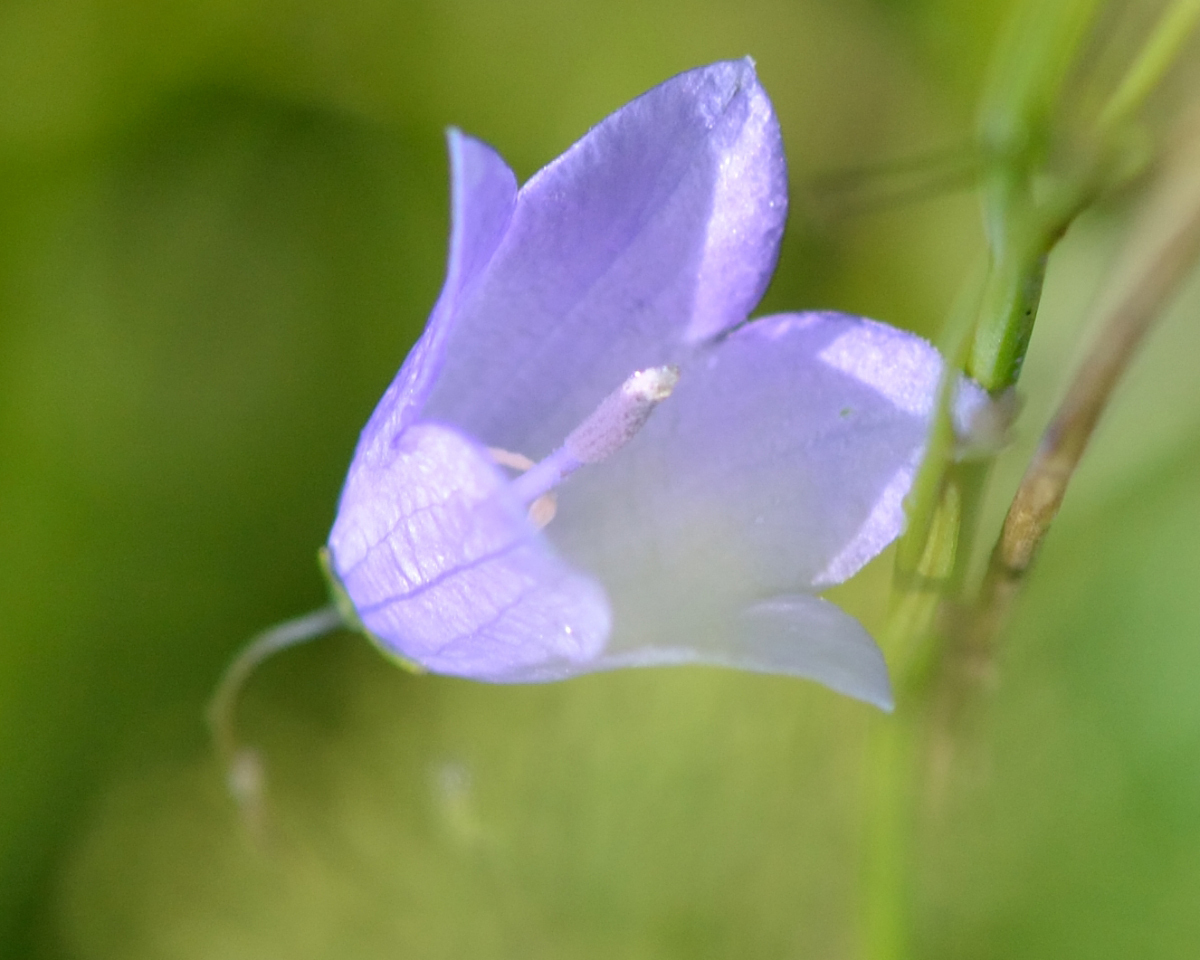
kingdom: Plantae
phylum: Tracheophyta
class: Magnoliopsida
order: Asterales
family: Campanulaceae
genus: Campanula
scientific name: Campanula rotundifolia
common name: Harebell
